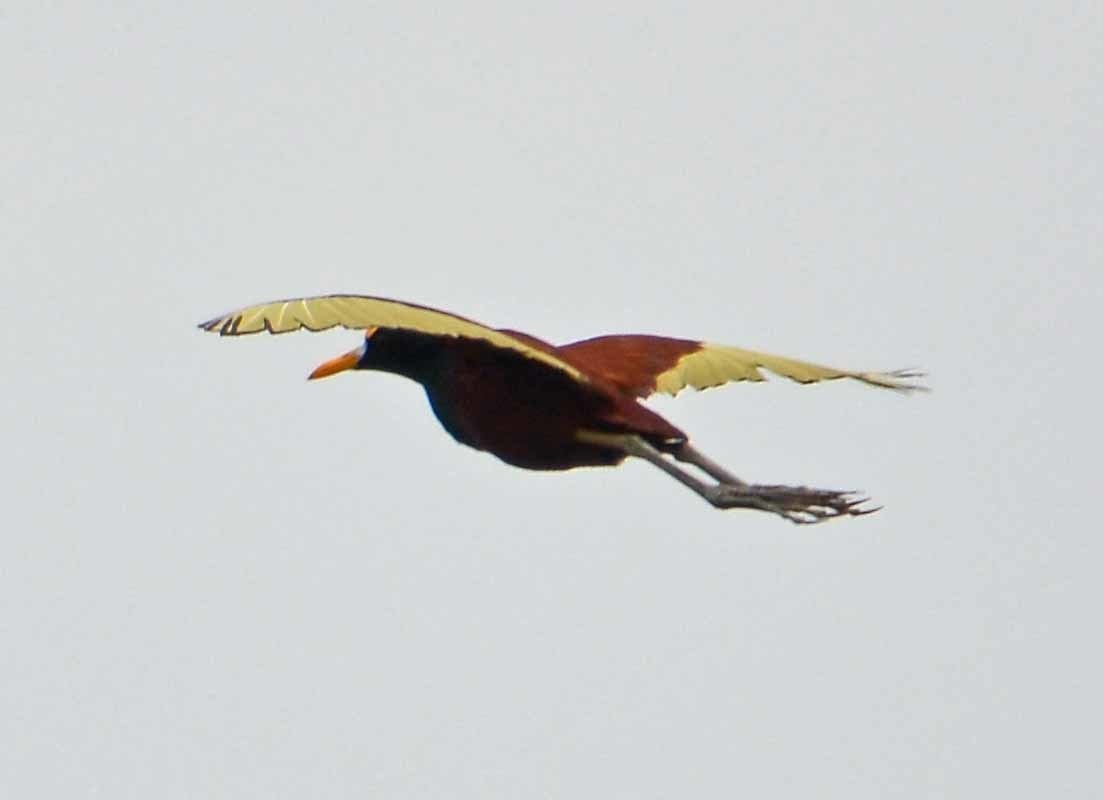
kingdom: Animalia
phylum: Chordata
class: Aves
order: Charadriiformes
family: Jacanidae
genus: Jacana
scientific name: Jacana spinosa
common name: Northern jacana
